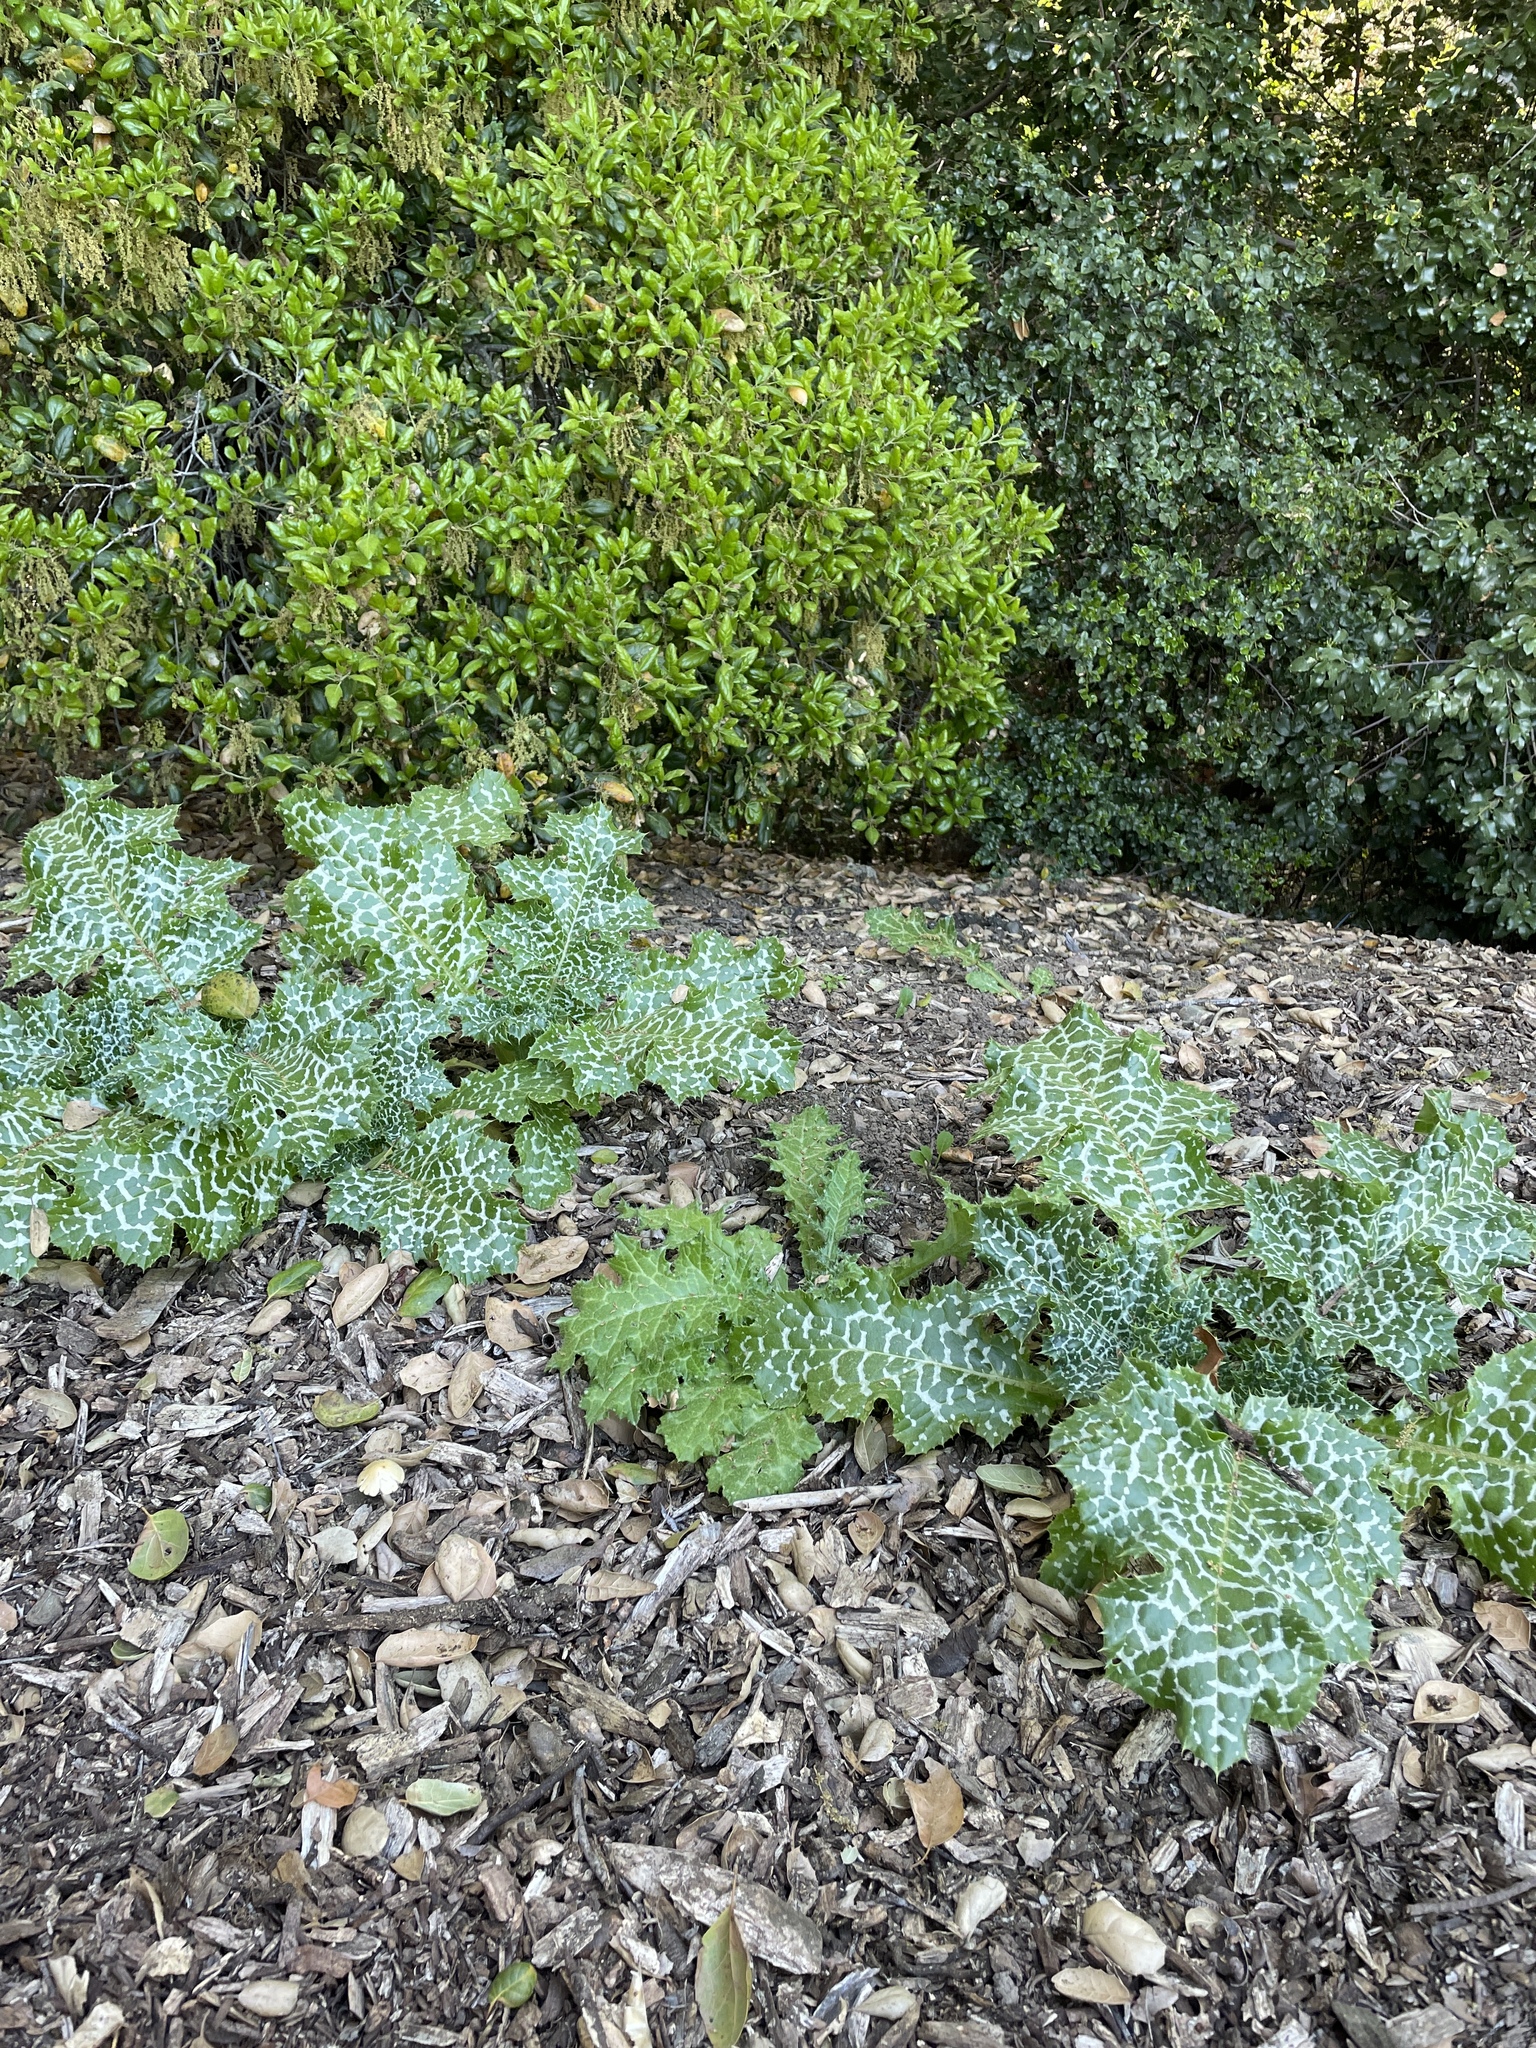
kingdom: Plantae
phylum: Tracheophyta
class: Magnoliopsida
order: Asterales
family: Asteraceae
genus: Silybum
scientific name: Silybum marianum
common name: Milk thistle
